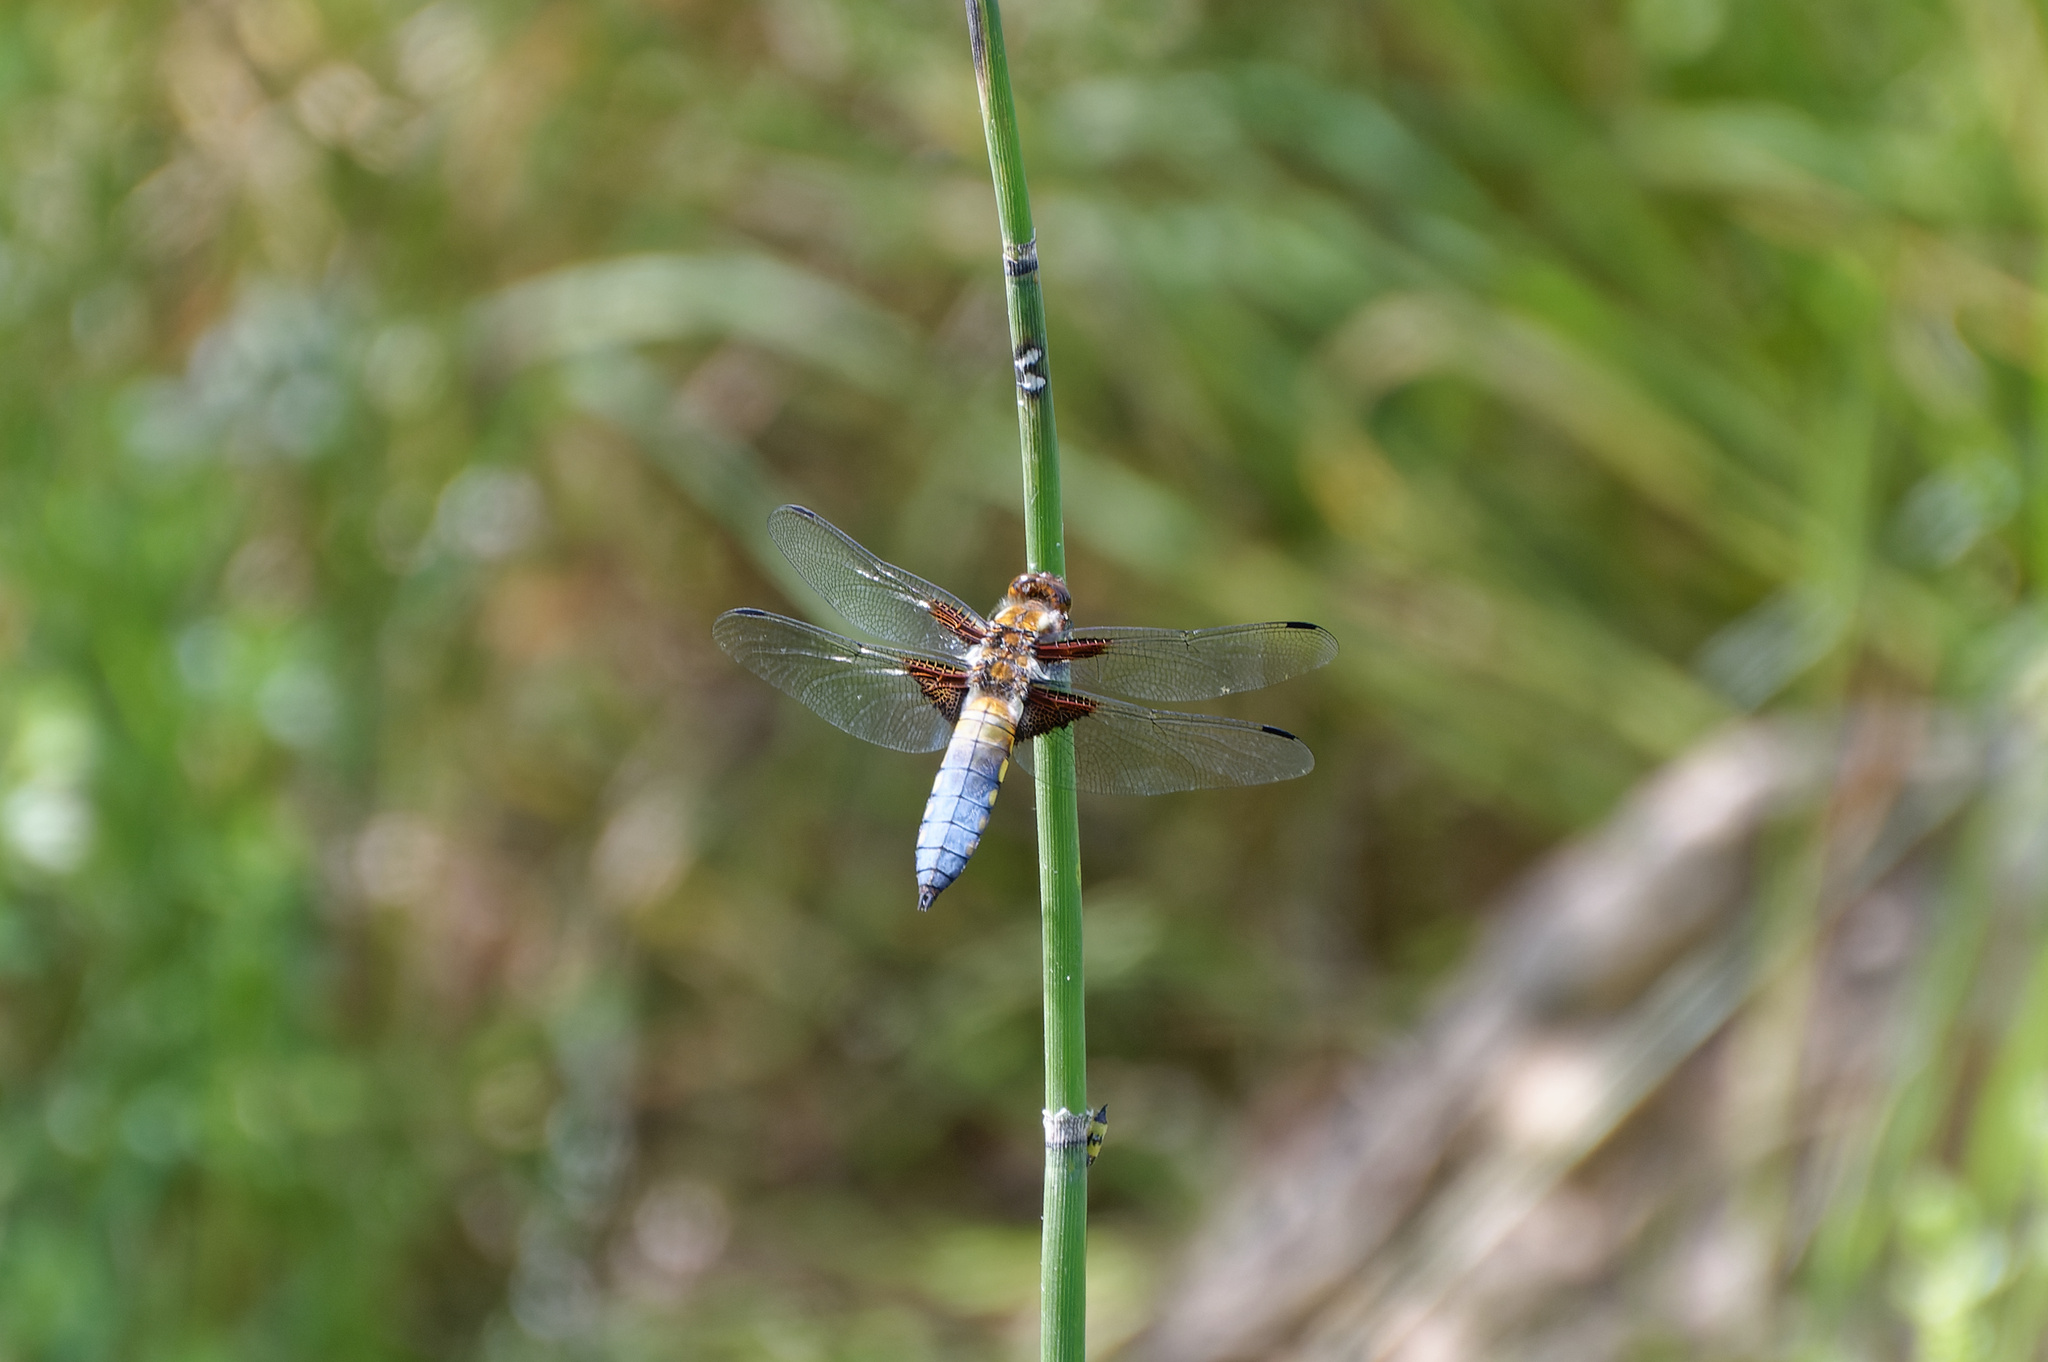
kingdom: Animalia
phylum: Arthropoda
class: Insecta
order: Odonata
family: Libellulidae
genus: Libellula
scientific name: Libellula depressa
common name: Broad-bodied chaser
